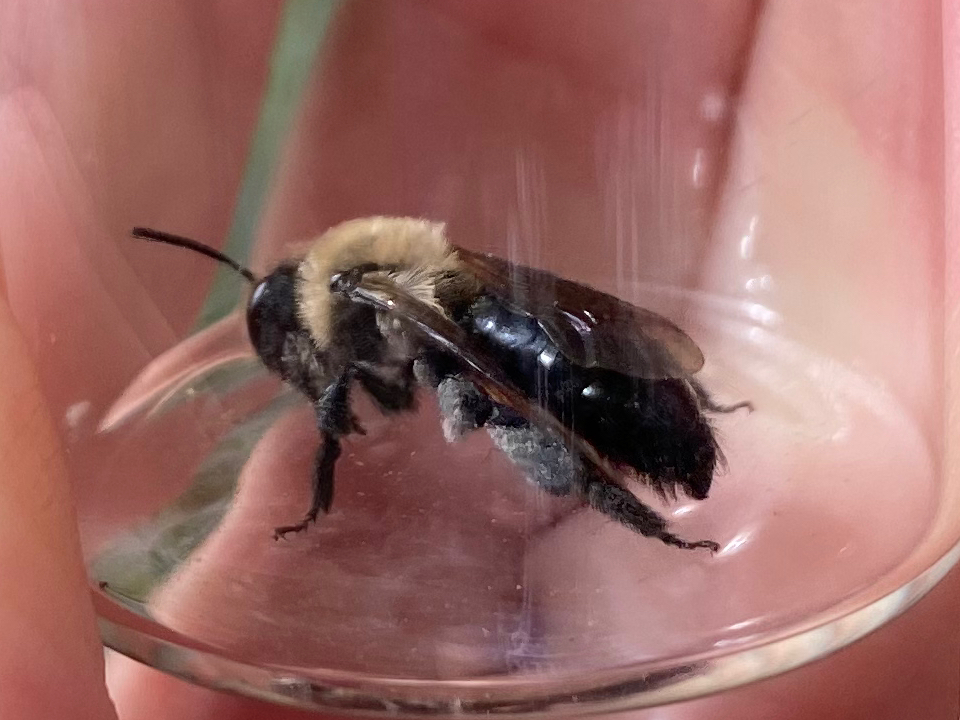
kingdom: Animalia
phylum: Arthropoda
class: Insecta
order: Hymenoptera
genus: Melandrena
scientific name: Melandrena
